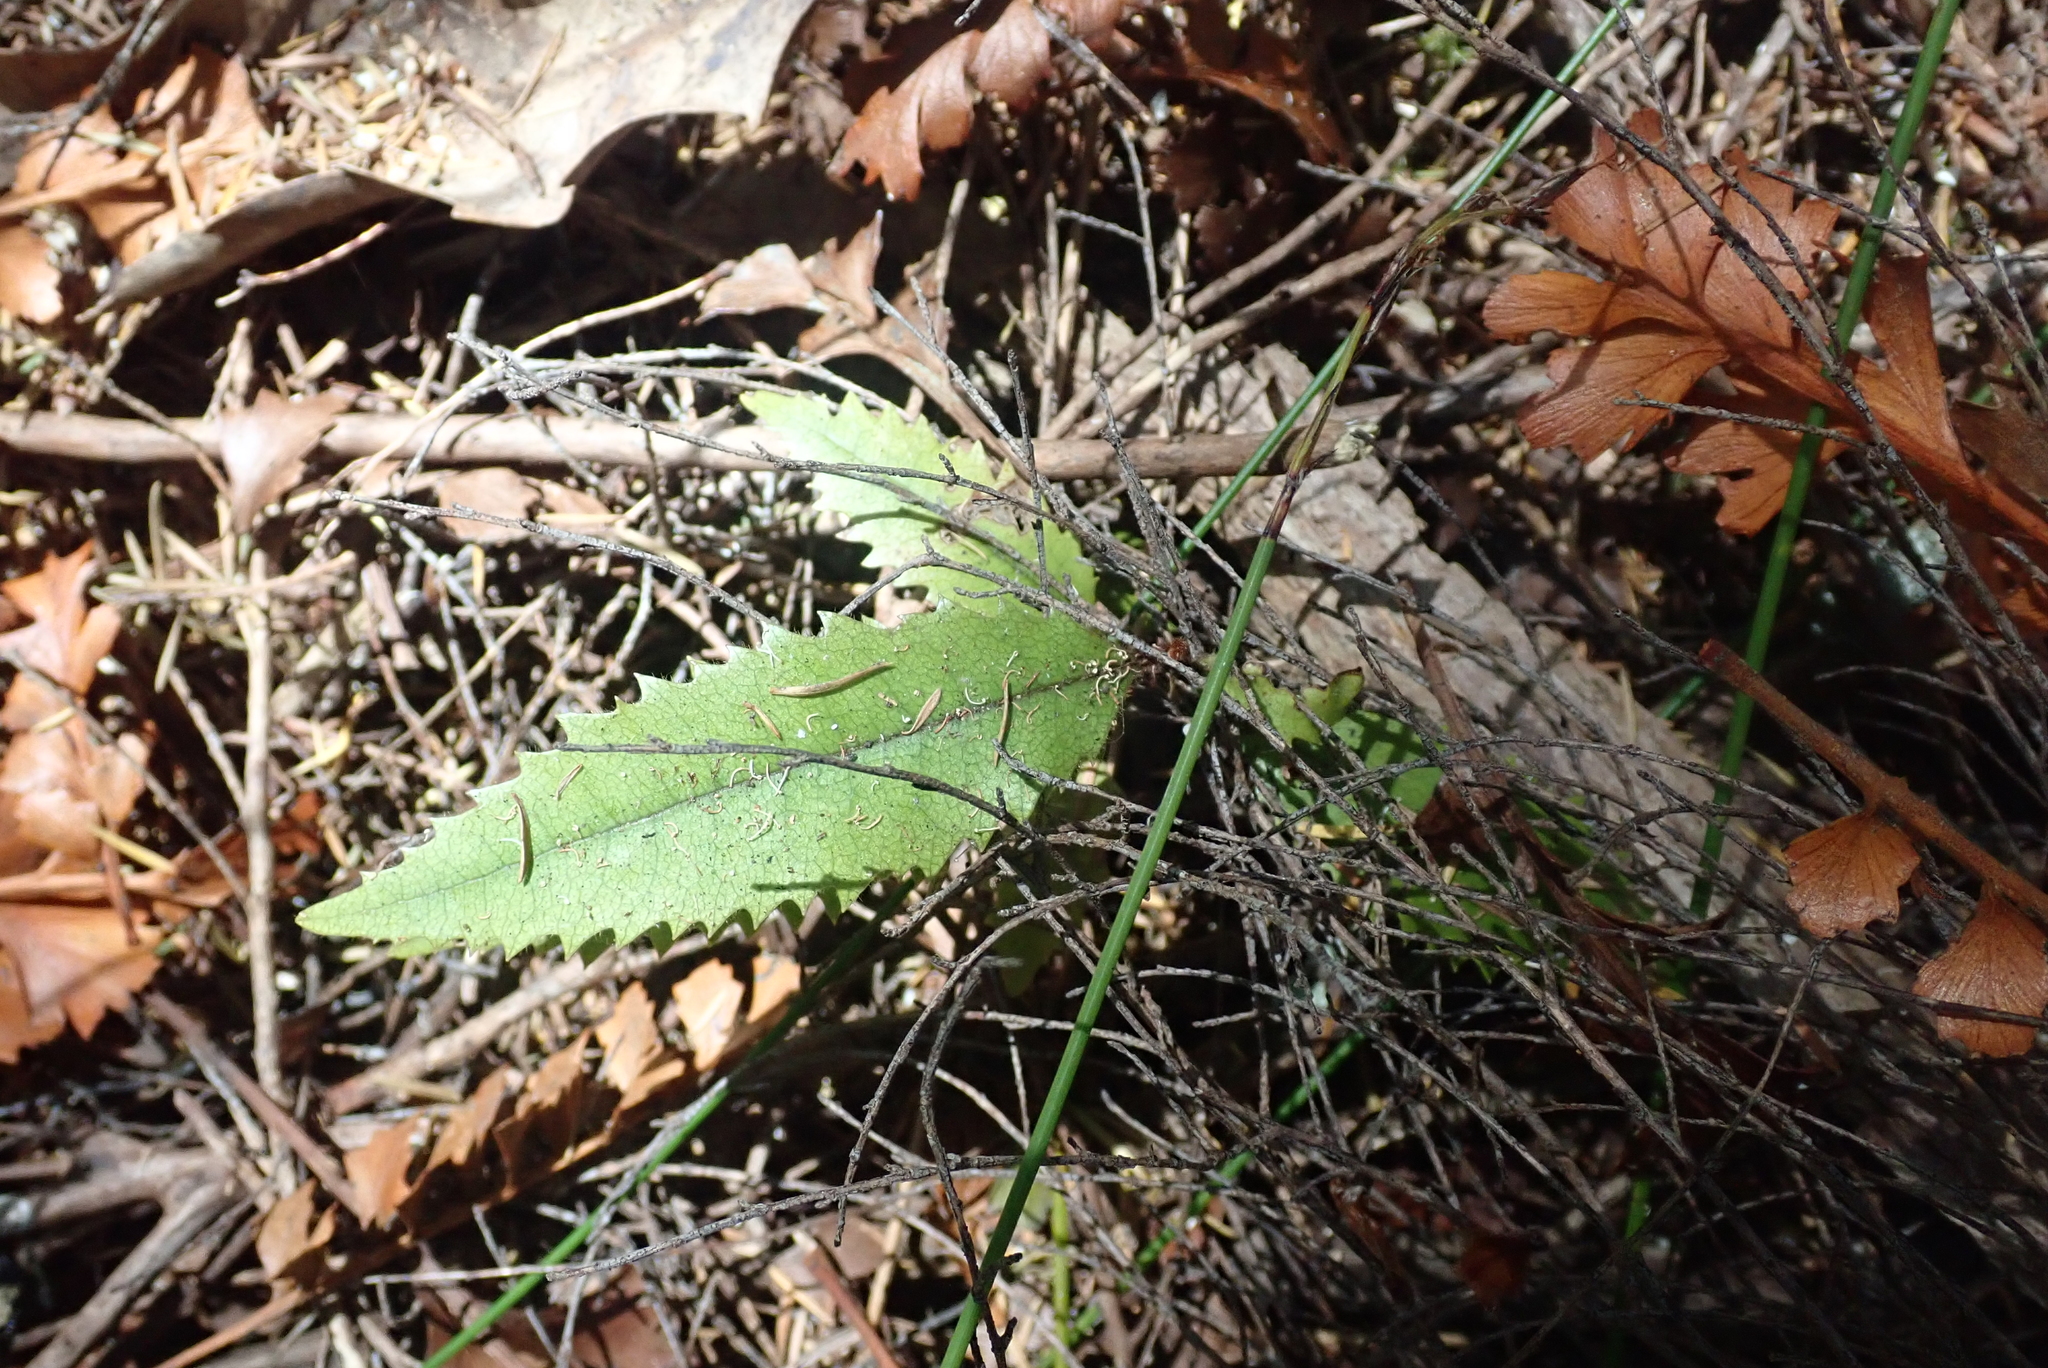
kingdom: Plantae
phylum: Tracheophyta
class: Magnoliopsida
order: Proteales
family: Proteaceae
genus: Knightia
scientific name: Knightia excelsa
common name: New zealand-honeysuckle
